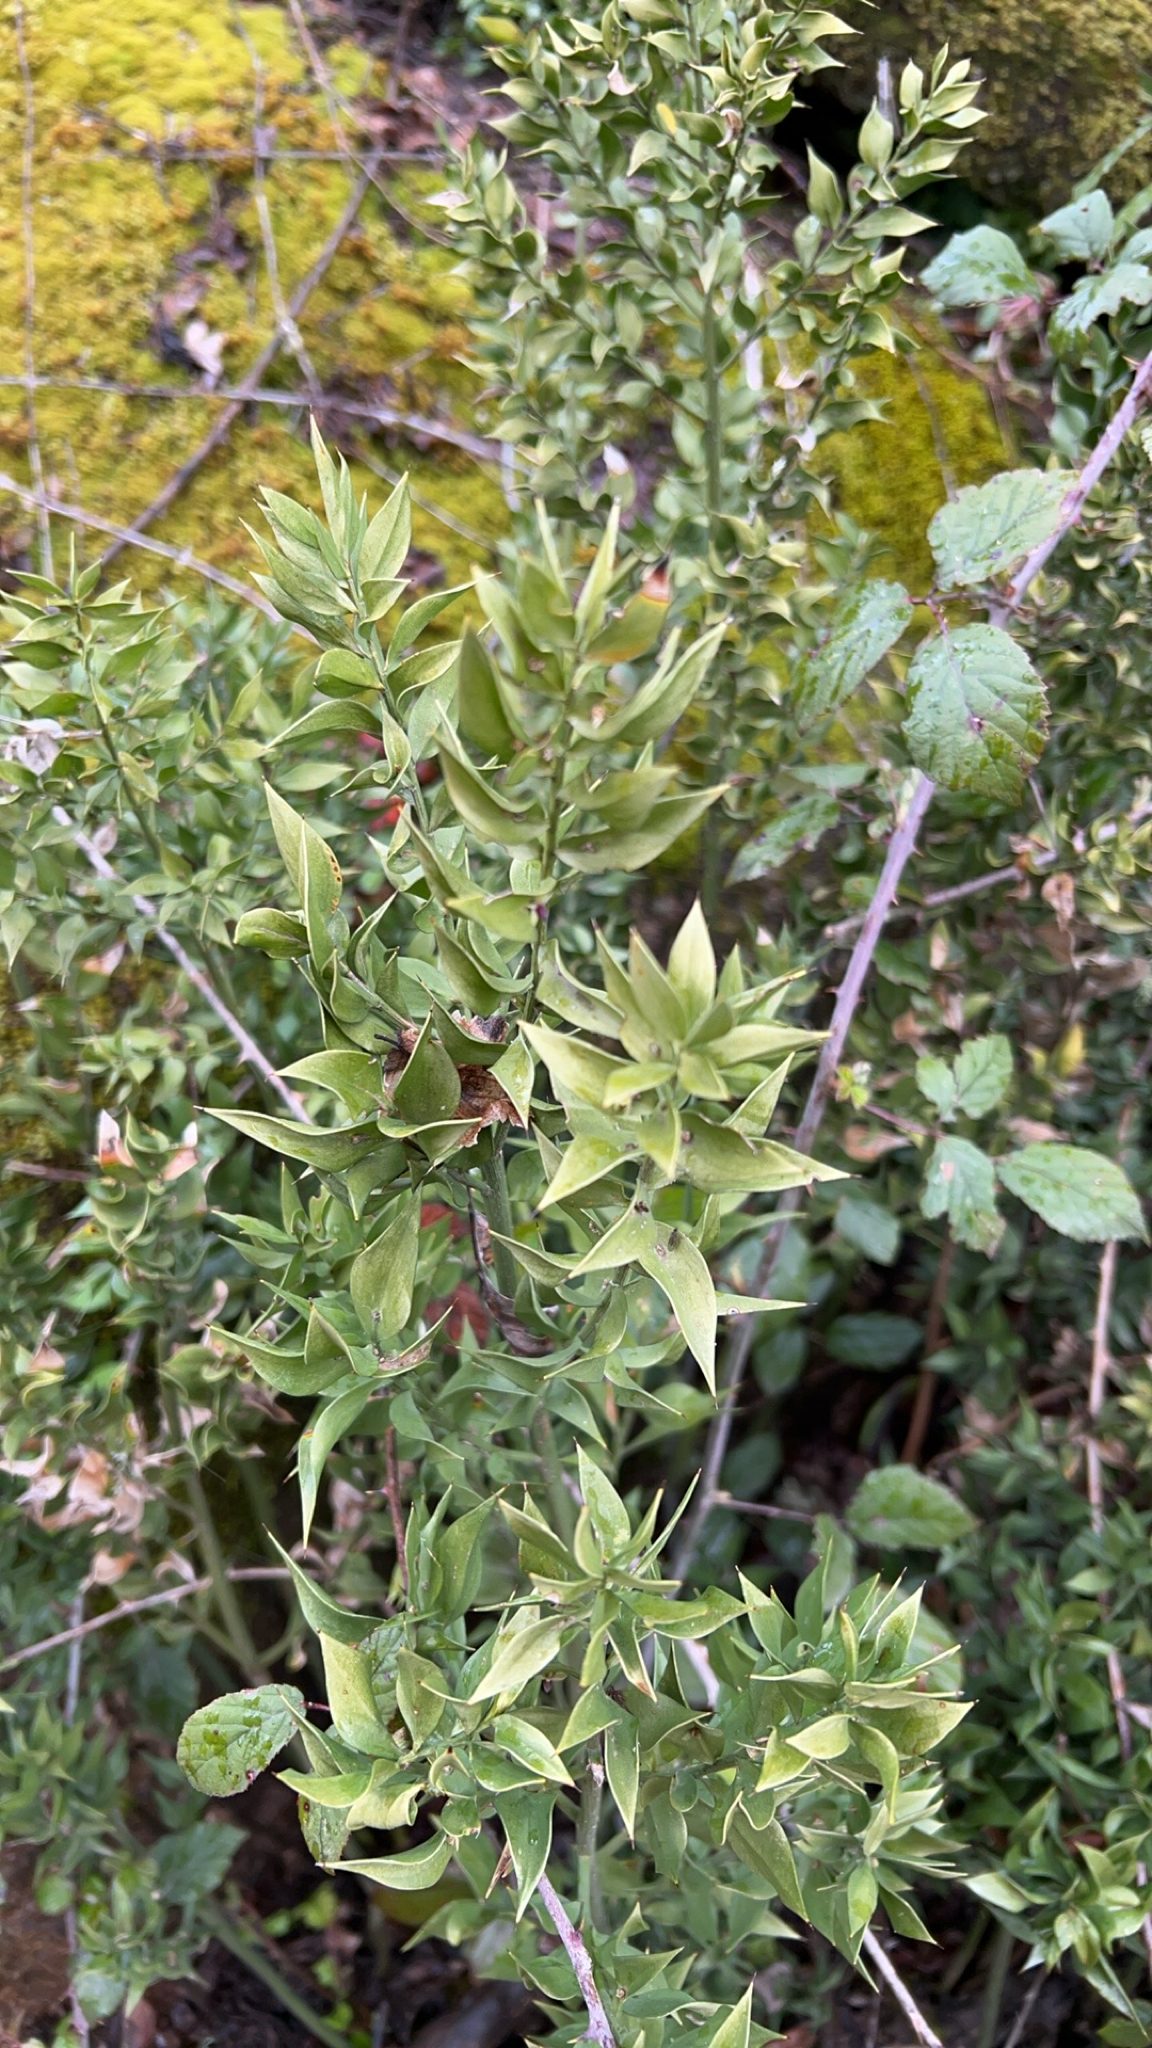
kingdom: Plantae
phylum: Tracheophyta
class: Liliopsida
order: Asparagales
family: Asparagaceae
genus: Ruscus
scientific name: Ruscus aculeatus
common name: Butcher's-broom
